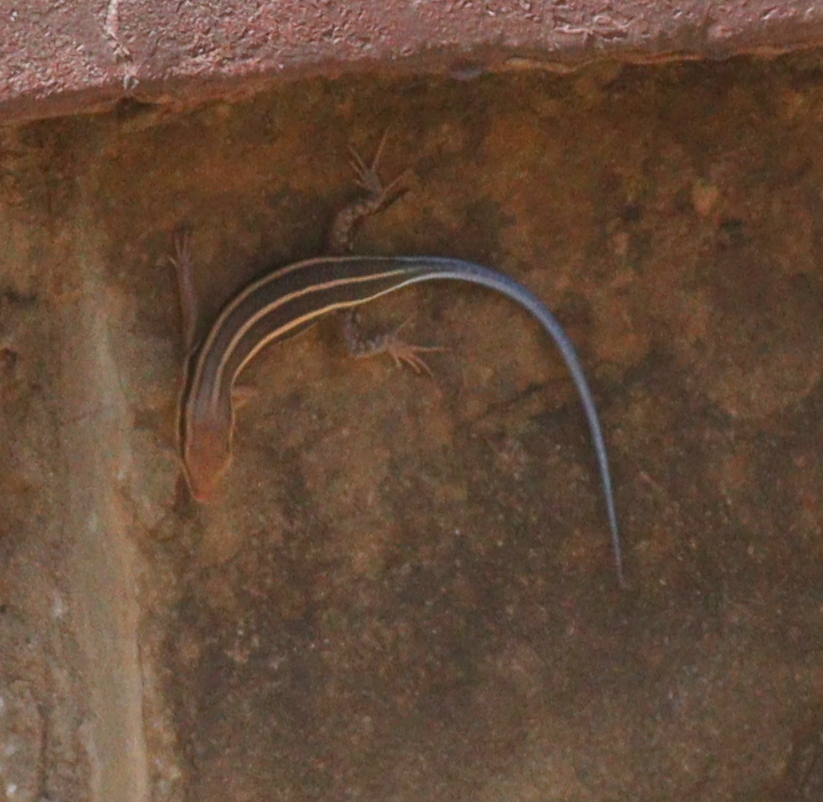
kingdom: Animalia
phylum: Chordata
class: Squamata
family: Scincidae
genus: Trachylepis
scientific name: Trachylepis quinquetaeniata
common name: African five-lined skink
